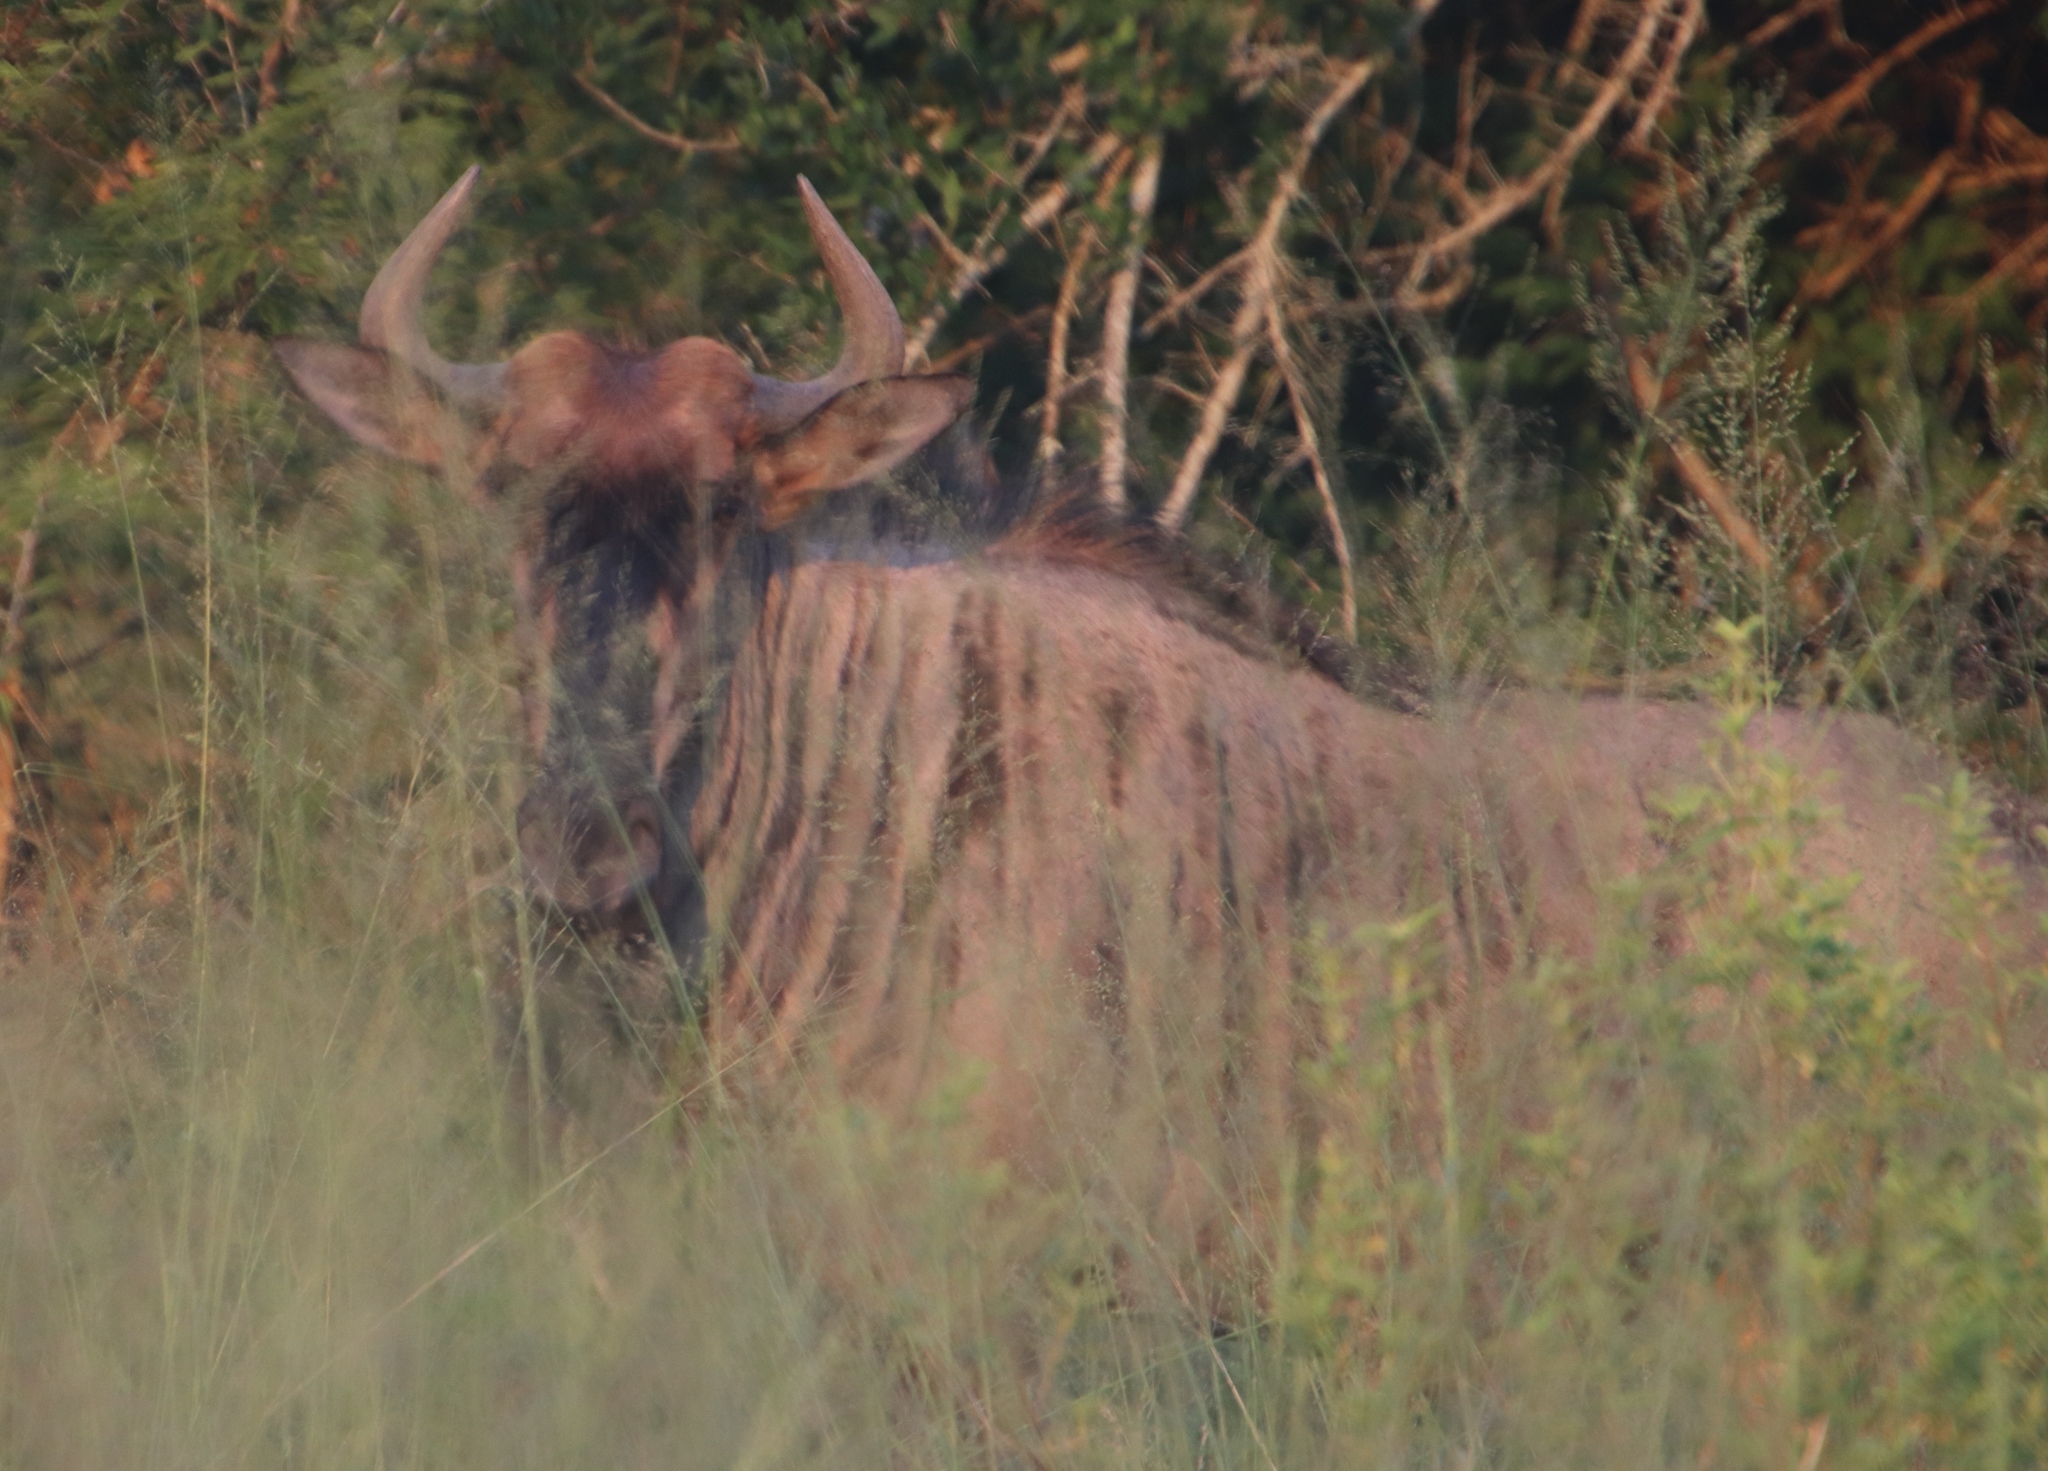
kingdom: Animalia
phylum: Chordata
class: Mammalia
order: Artiodactyla
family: Bovidae
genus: Connochaetes
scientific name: Connochaetes taurinus
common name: Blue wildebeest
